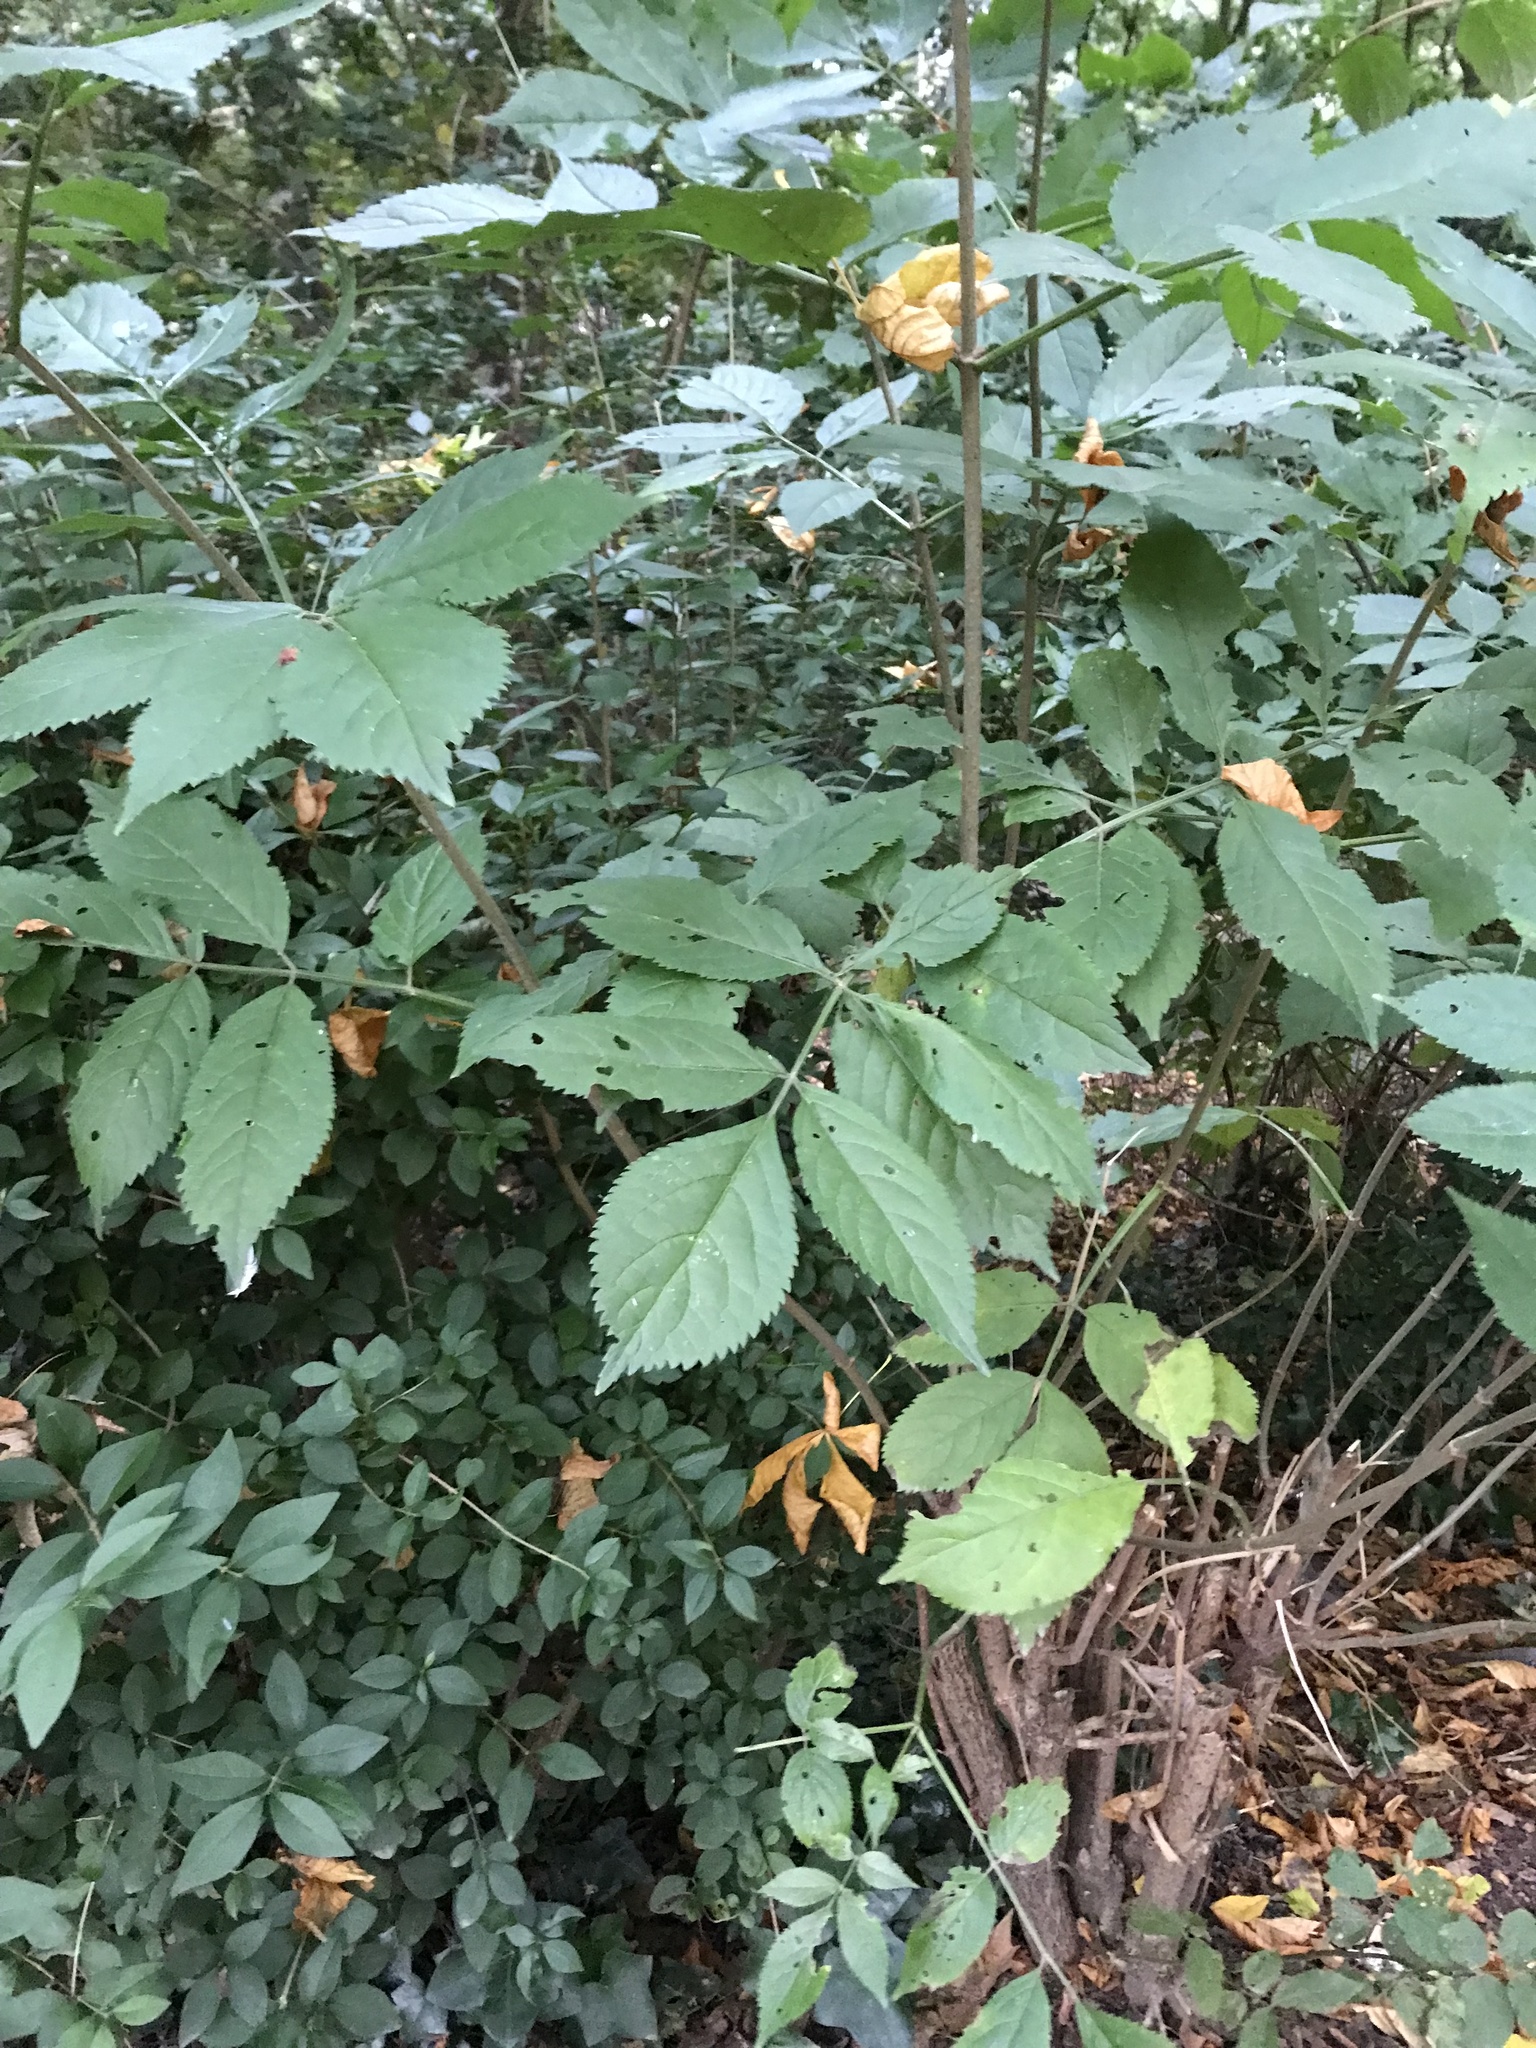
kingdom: Plantae
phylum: Tracheophyta
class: Magnoliopsida
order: Dipsacales
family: Viburnaceae
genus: Sambucus
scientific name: Sambucus nigra
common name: Elder
